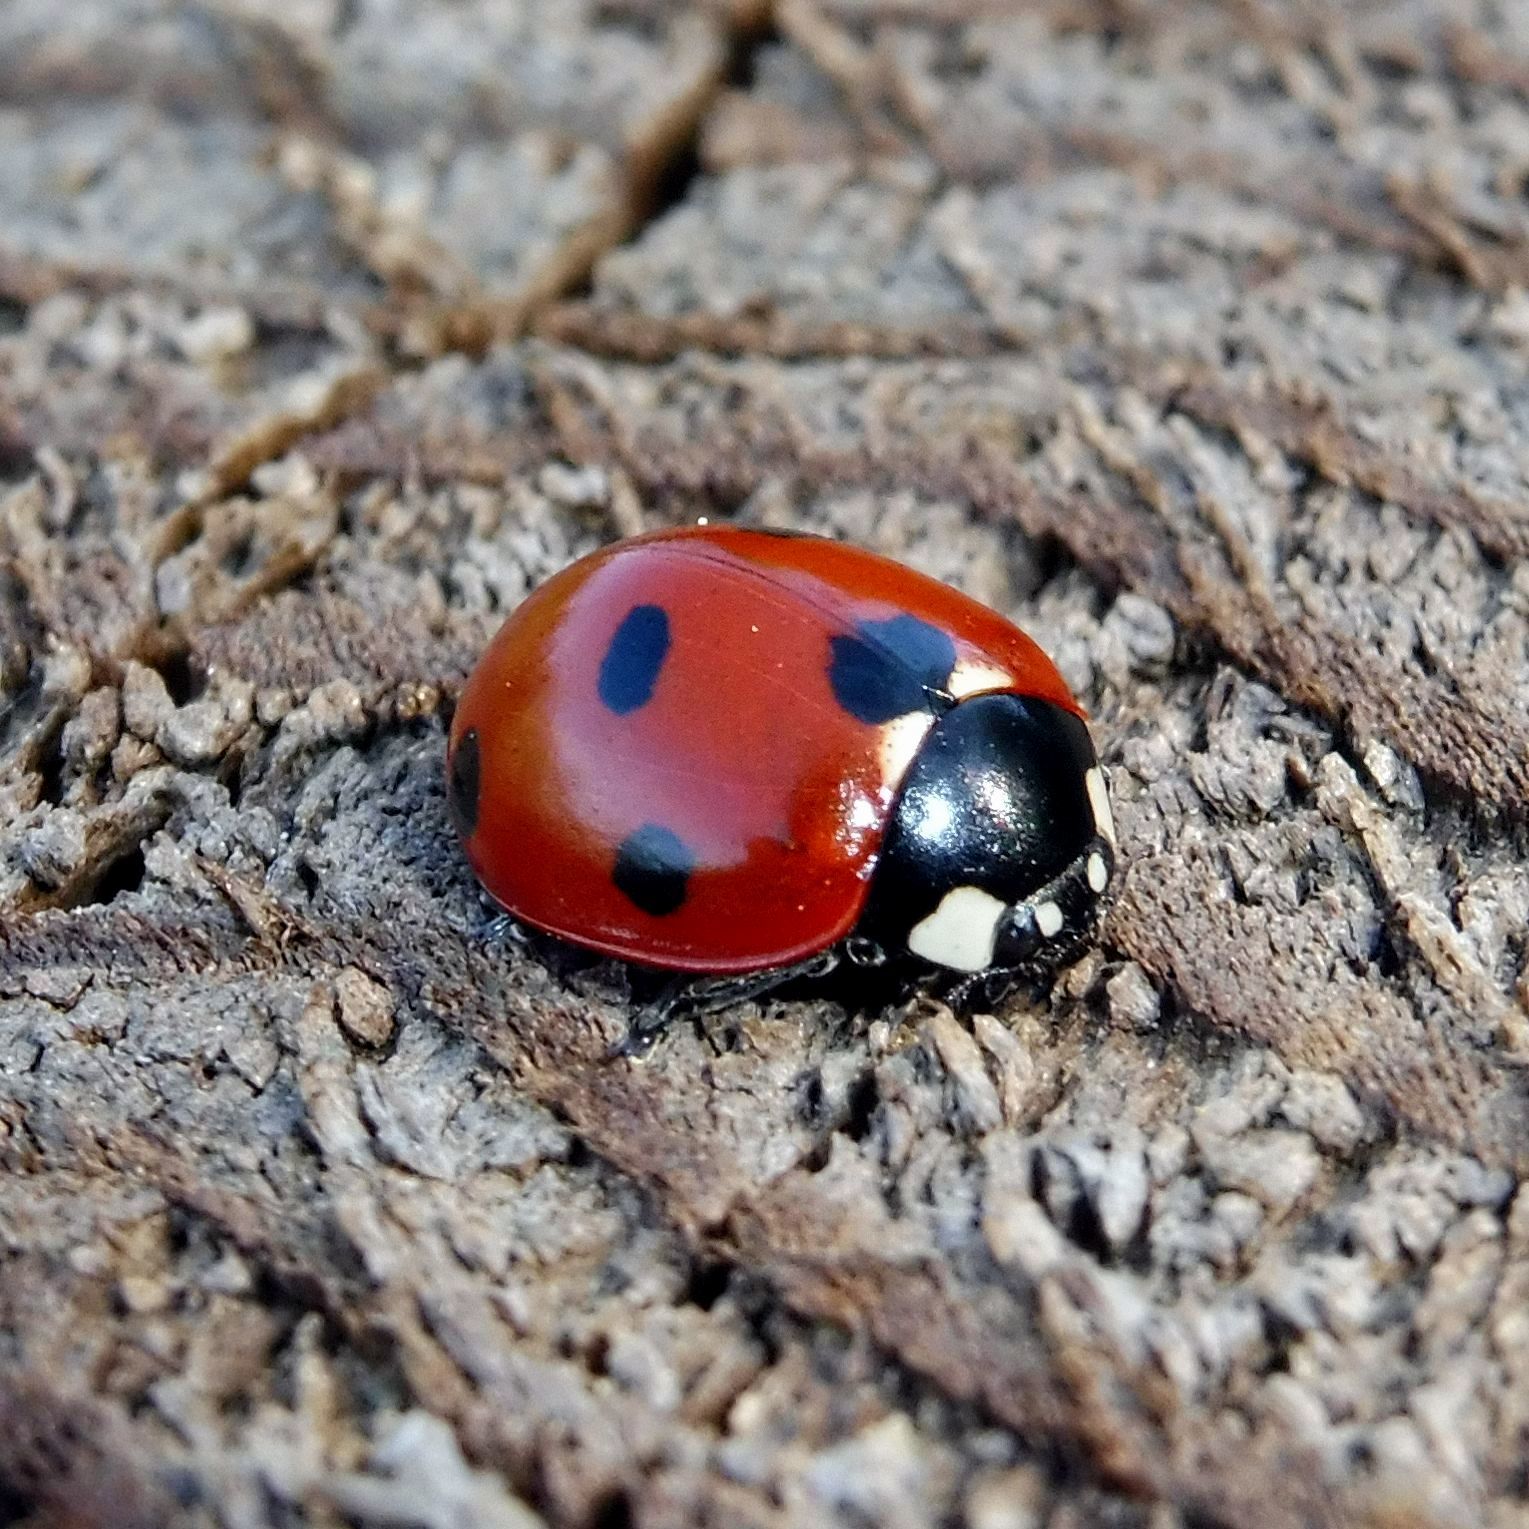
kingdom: Animalia
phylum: Arthropoda
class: Insecta
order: Coleoptera
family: Coccinellidae
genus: Coccinella
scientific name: Coccinella septempunctata
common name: Sevenspotted lady beetle
